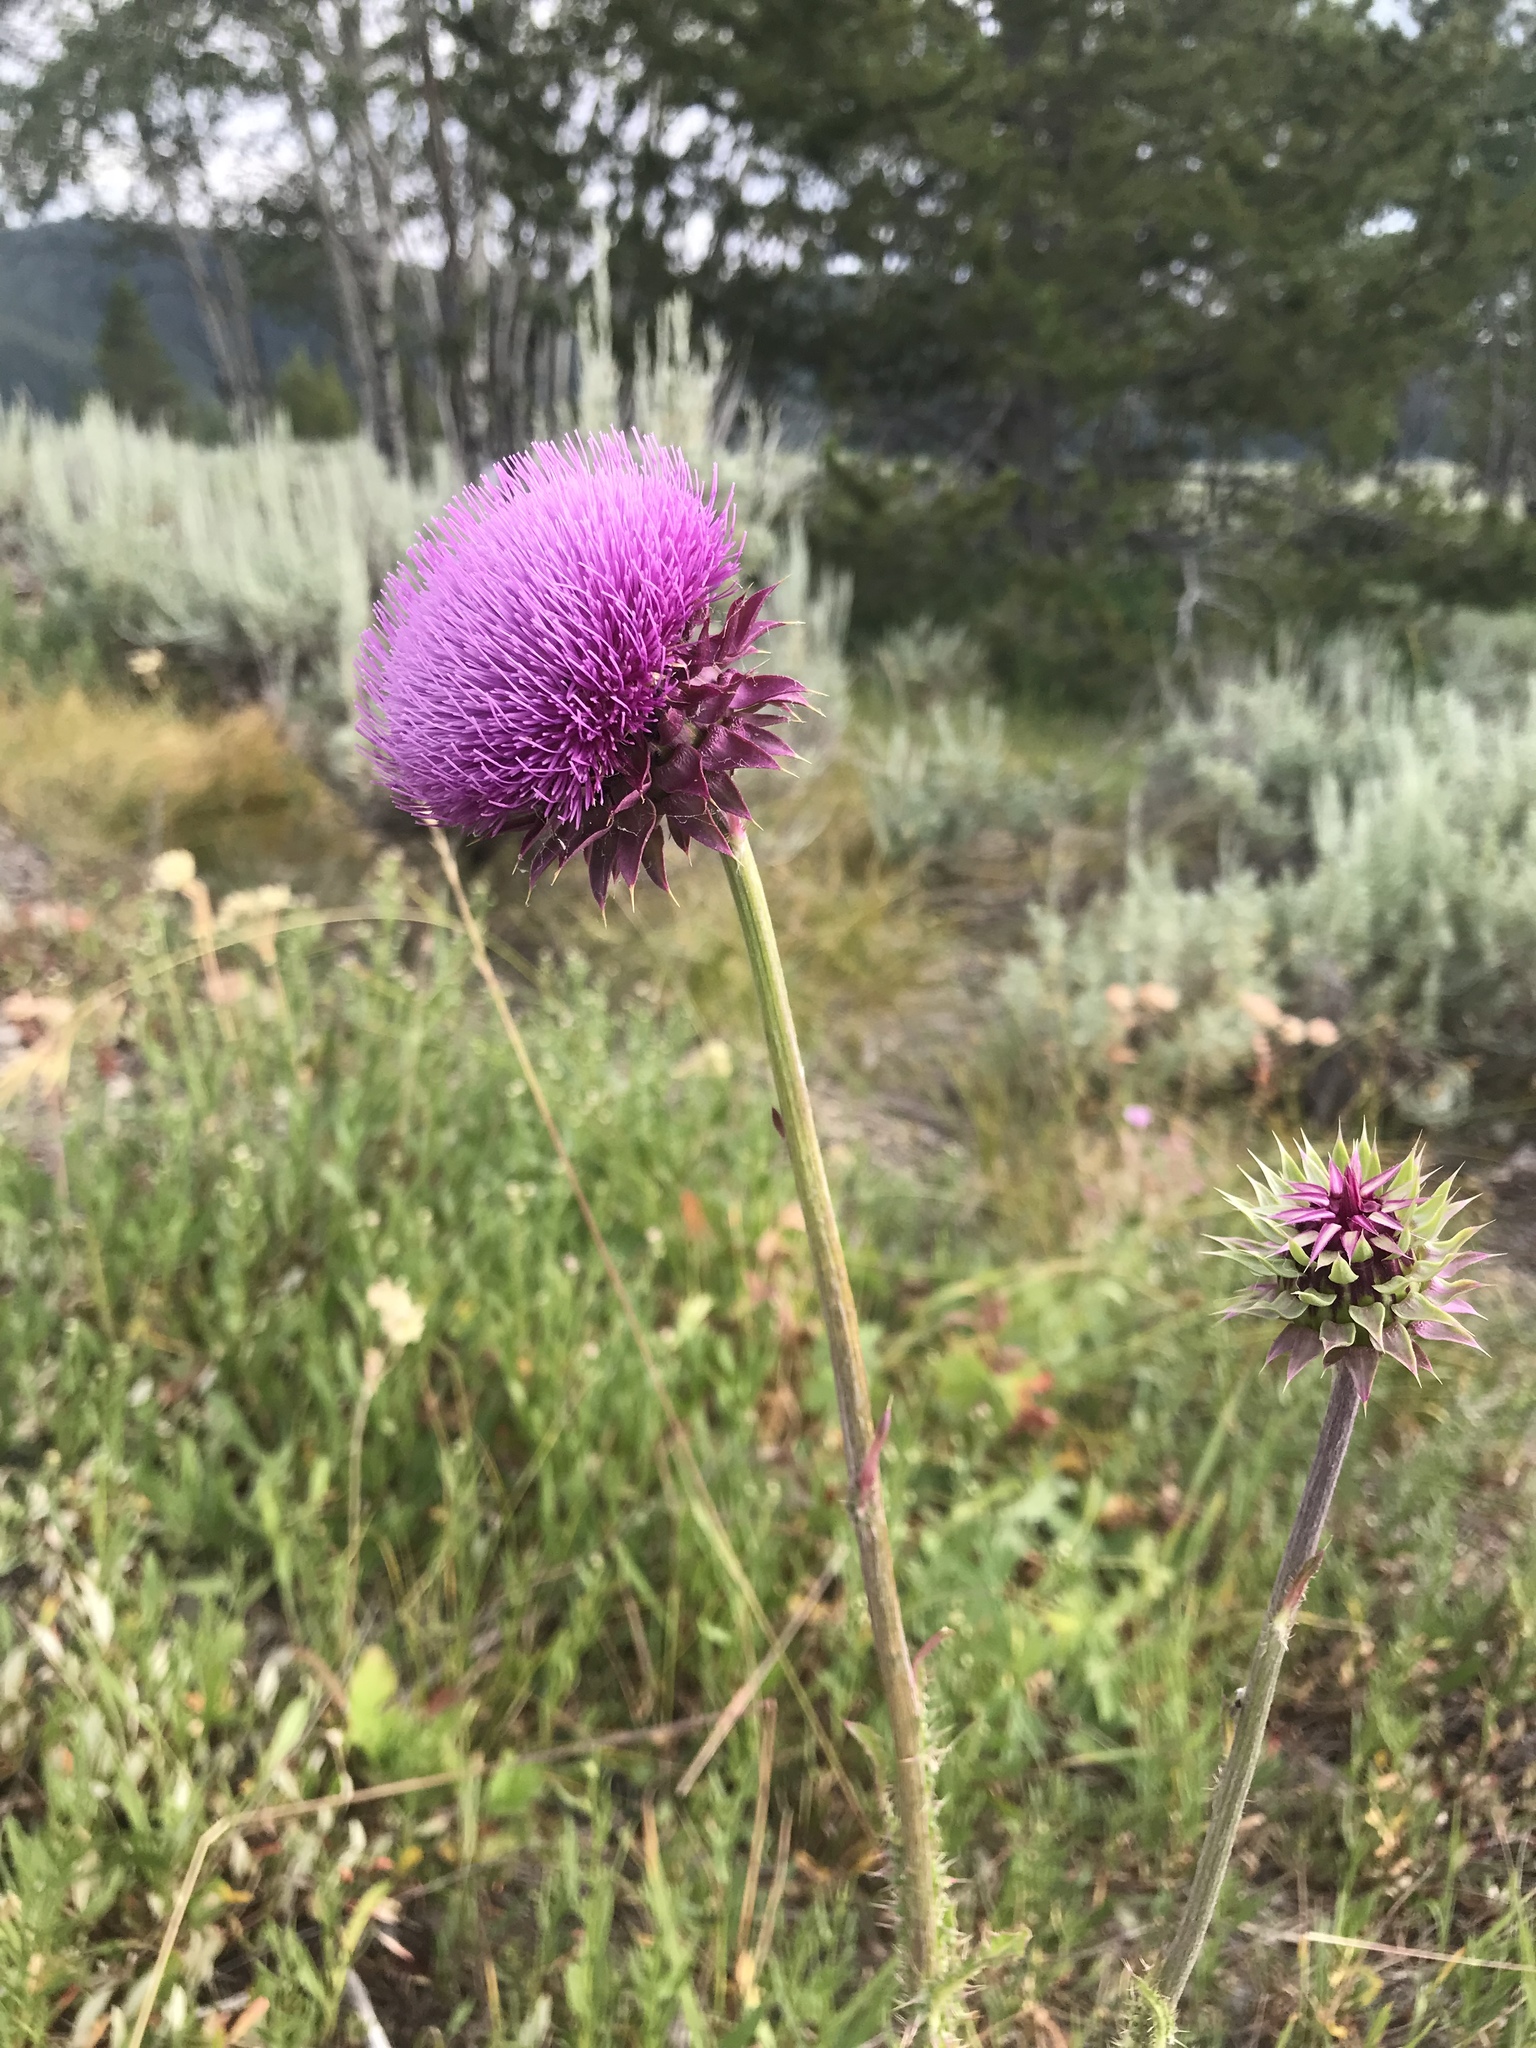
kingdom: Plantae
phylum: Tracheophyta
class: Magnoliopsida
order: Asterales
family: Asteraceae
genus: Carduus
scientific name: Carduus nutans
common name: Musk thistle
